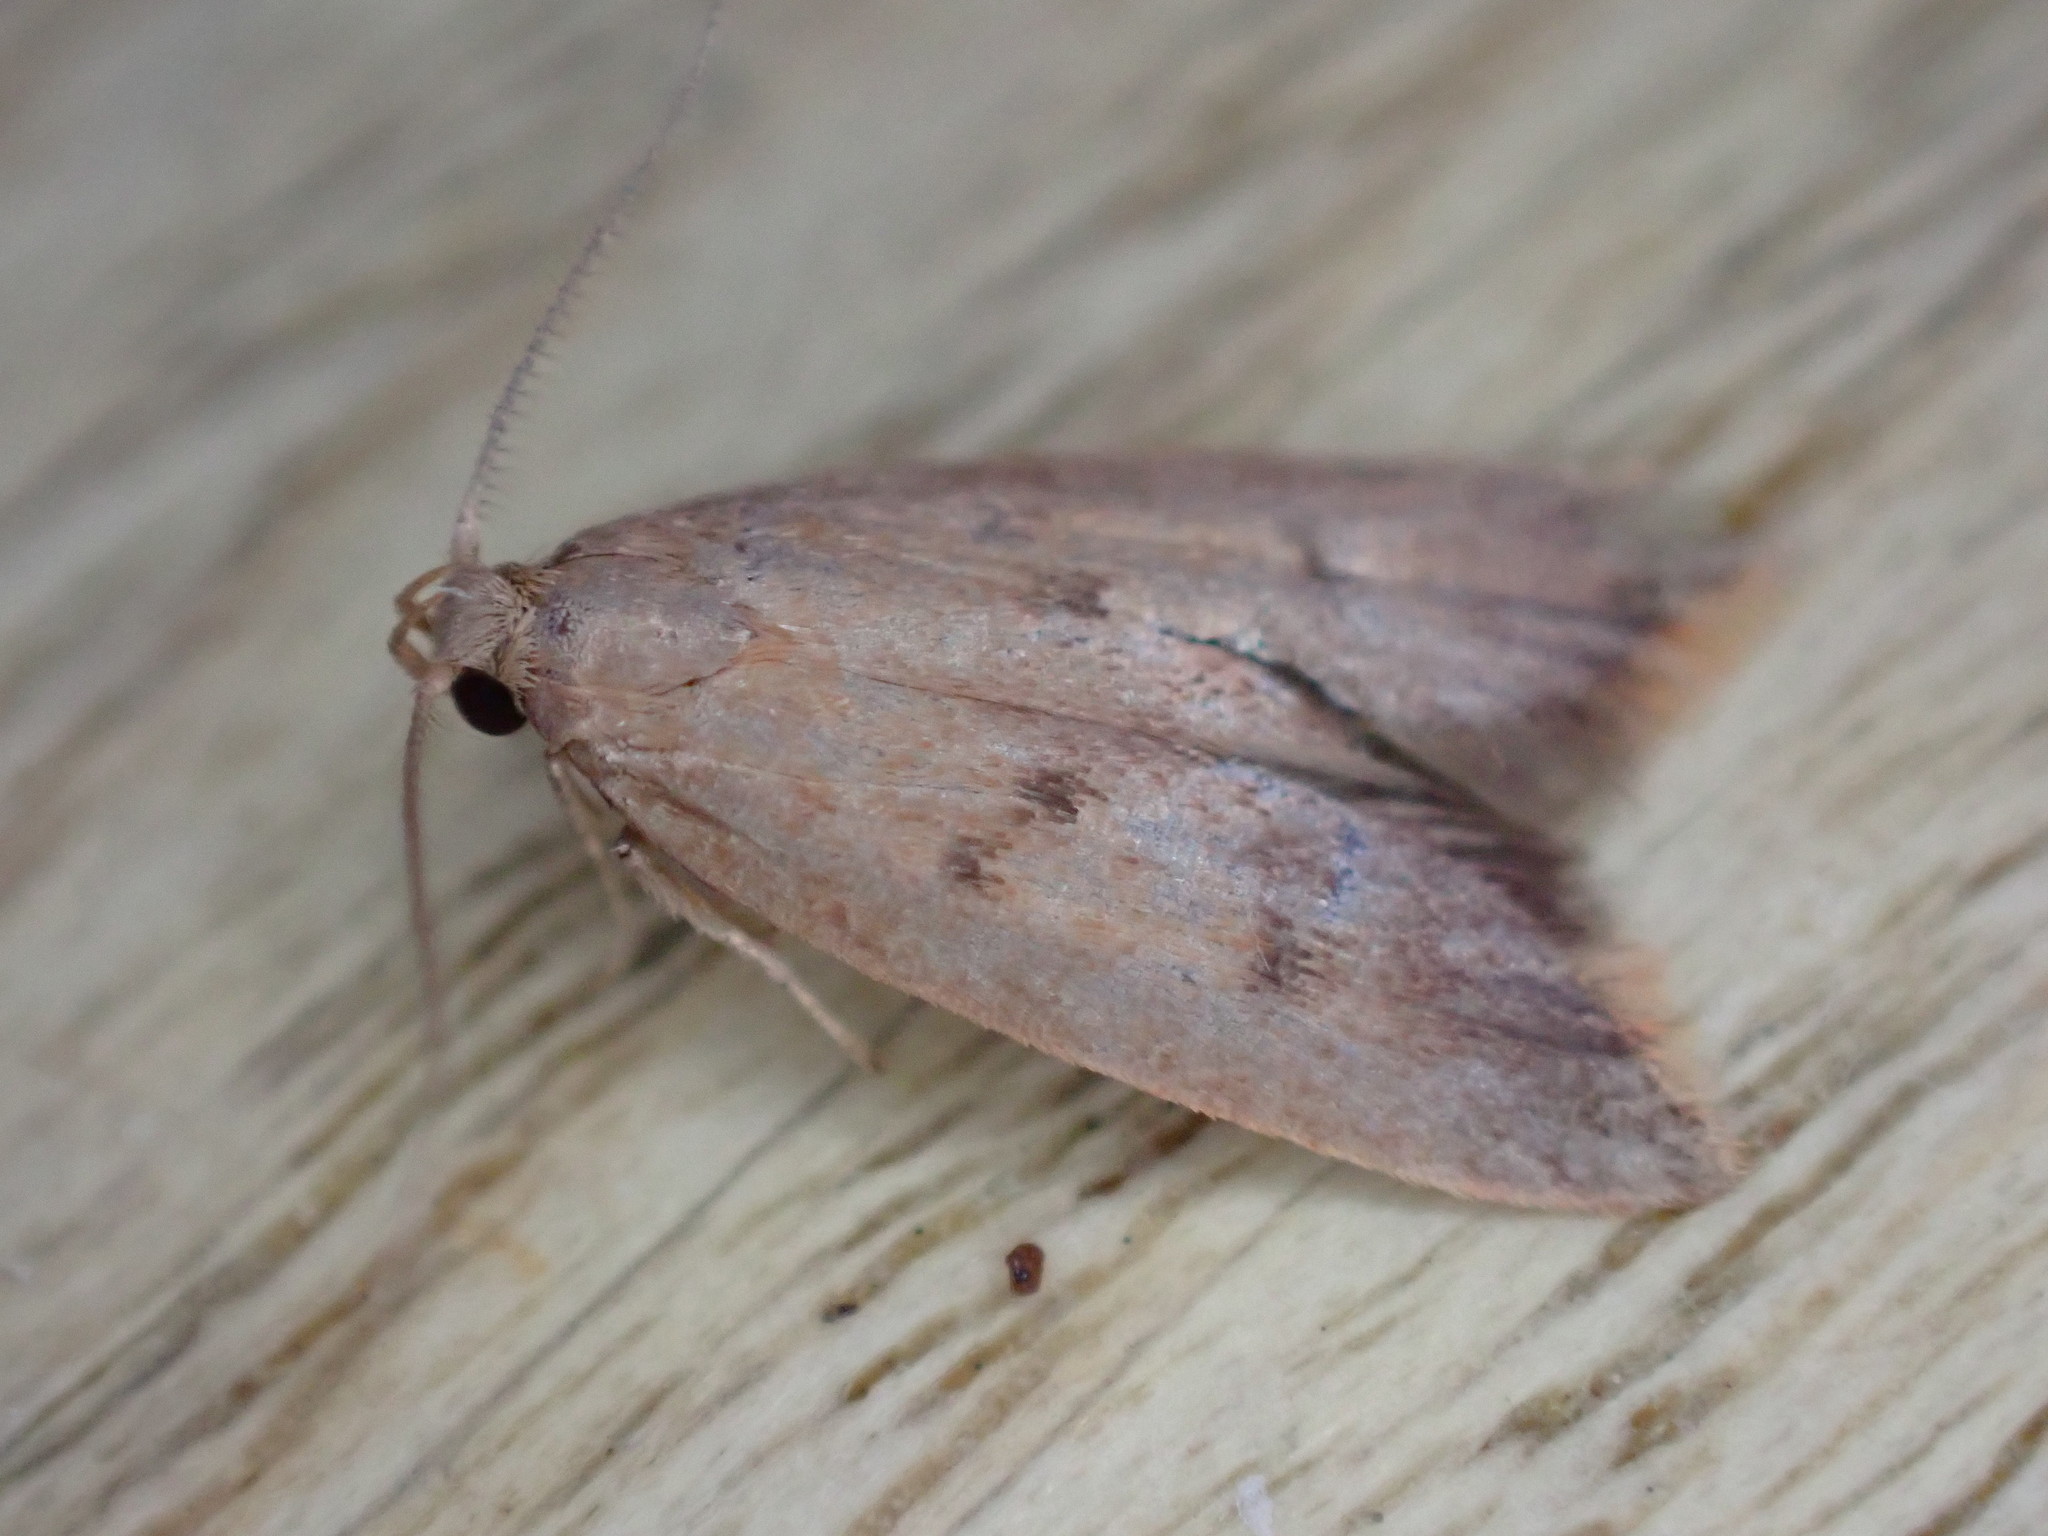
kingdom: Animalia
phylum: Arthropoda
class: Insecta
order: Lepidoptera
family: Oecophoridae
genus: Tachystola
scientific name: Tachystola acroxantha
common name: Ruddy streak
